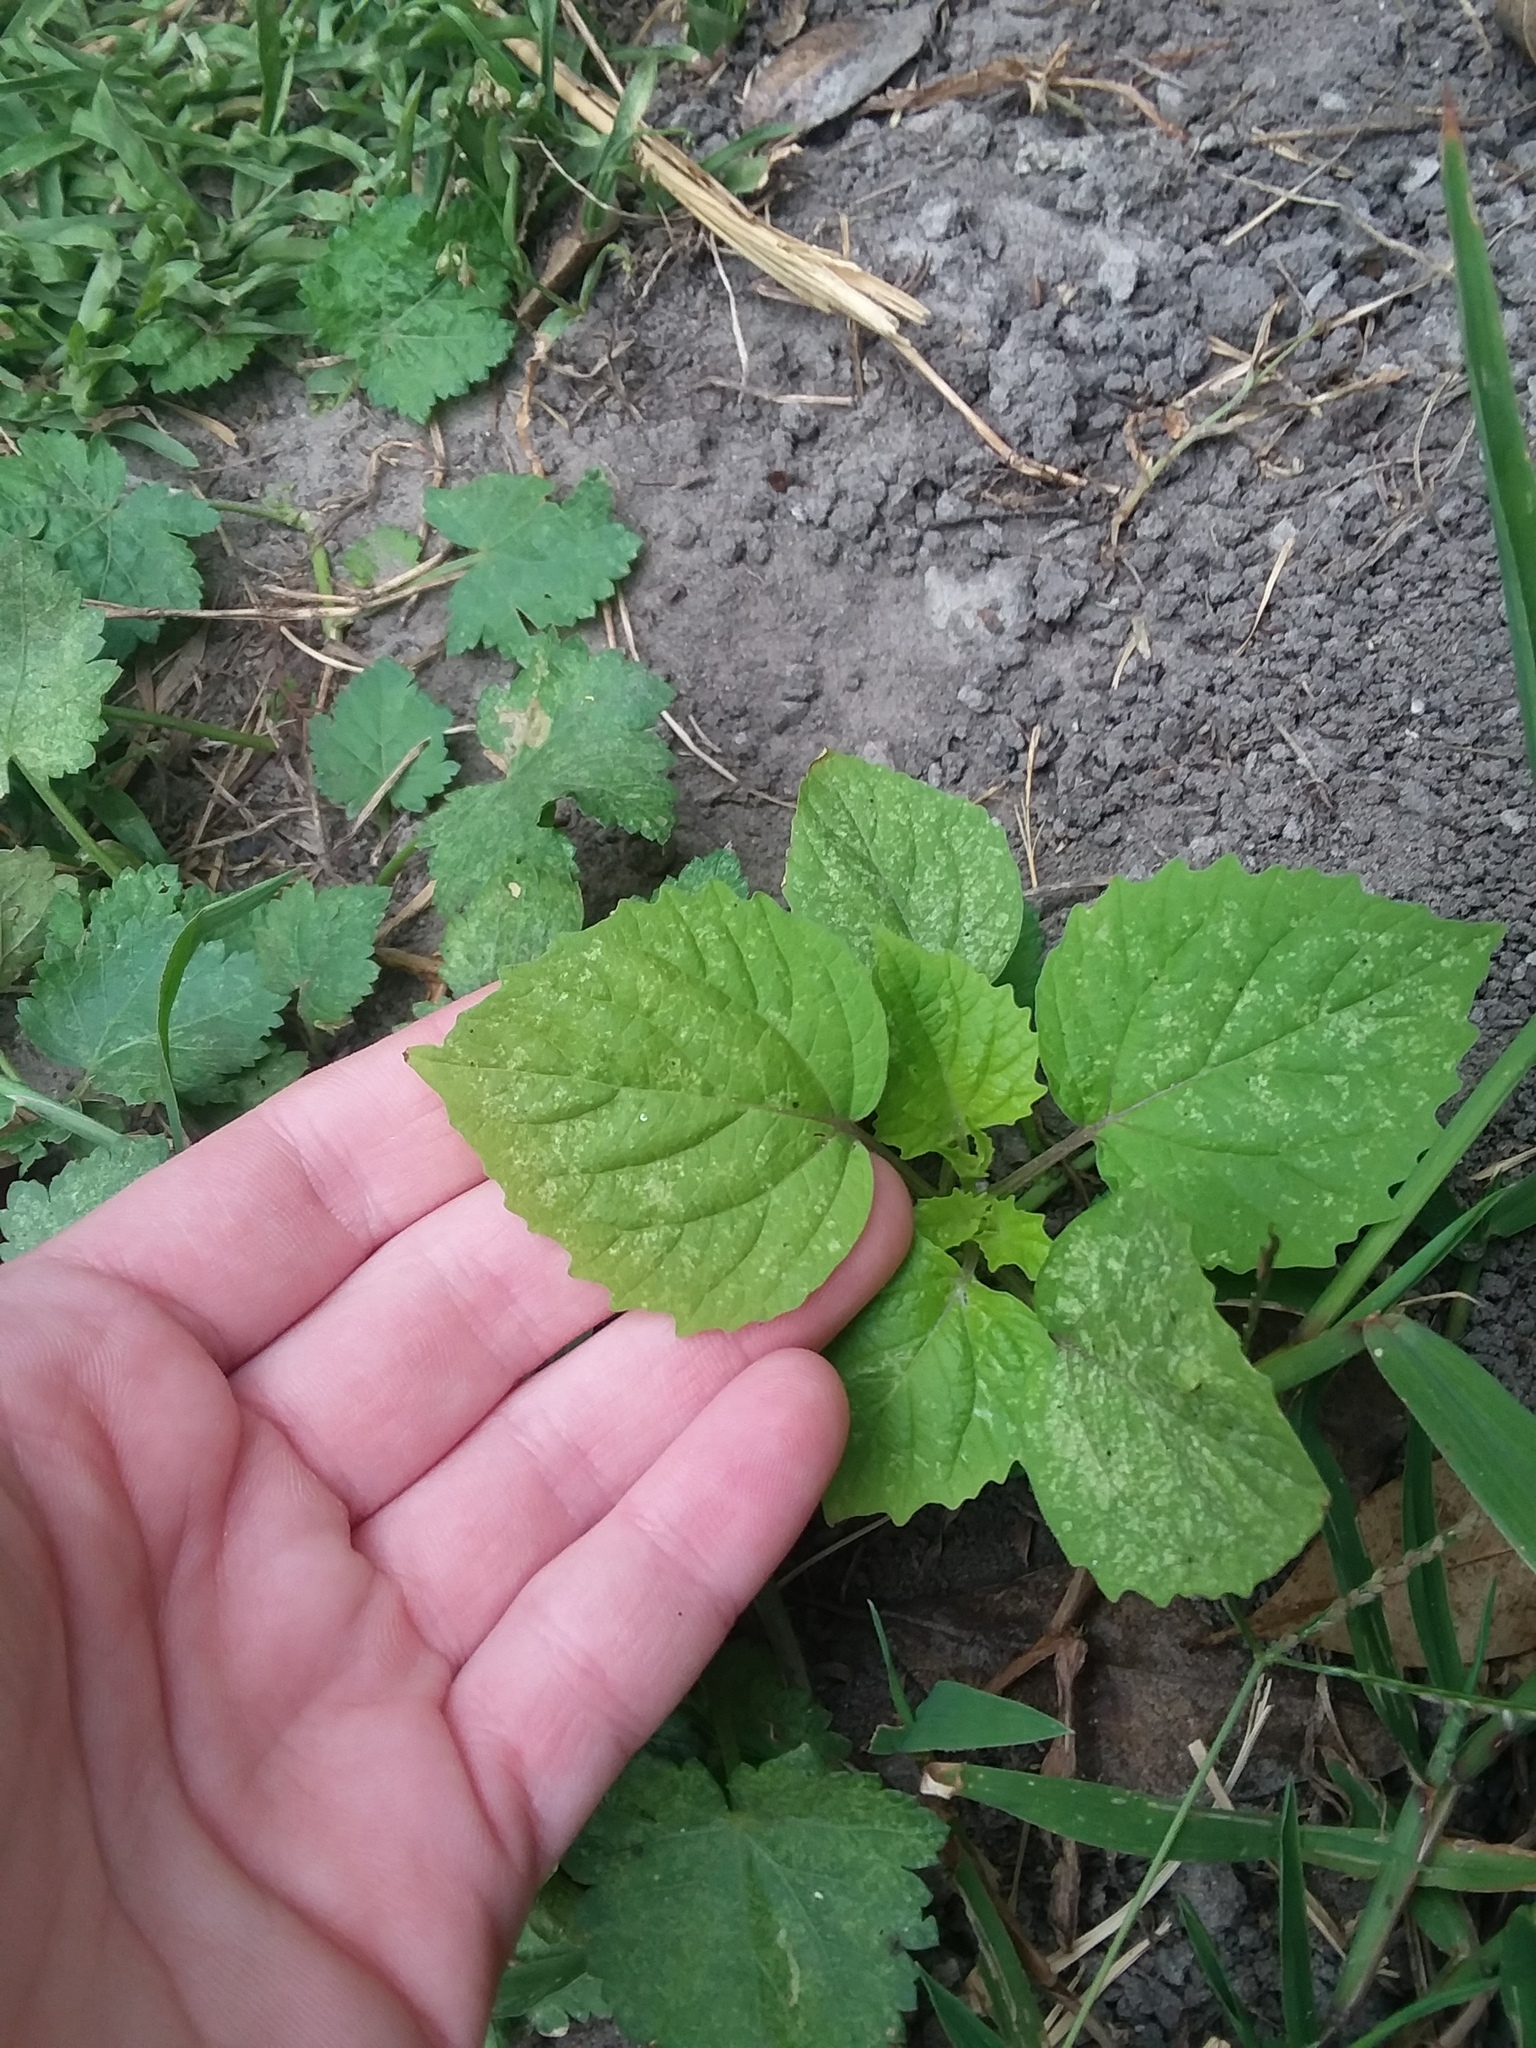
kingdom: Plantae
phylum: Tracheophyta
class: Magnoliopsida
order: Solanales
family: Solanaceae
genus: Physalis
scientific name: Physalis cordata
